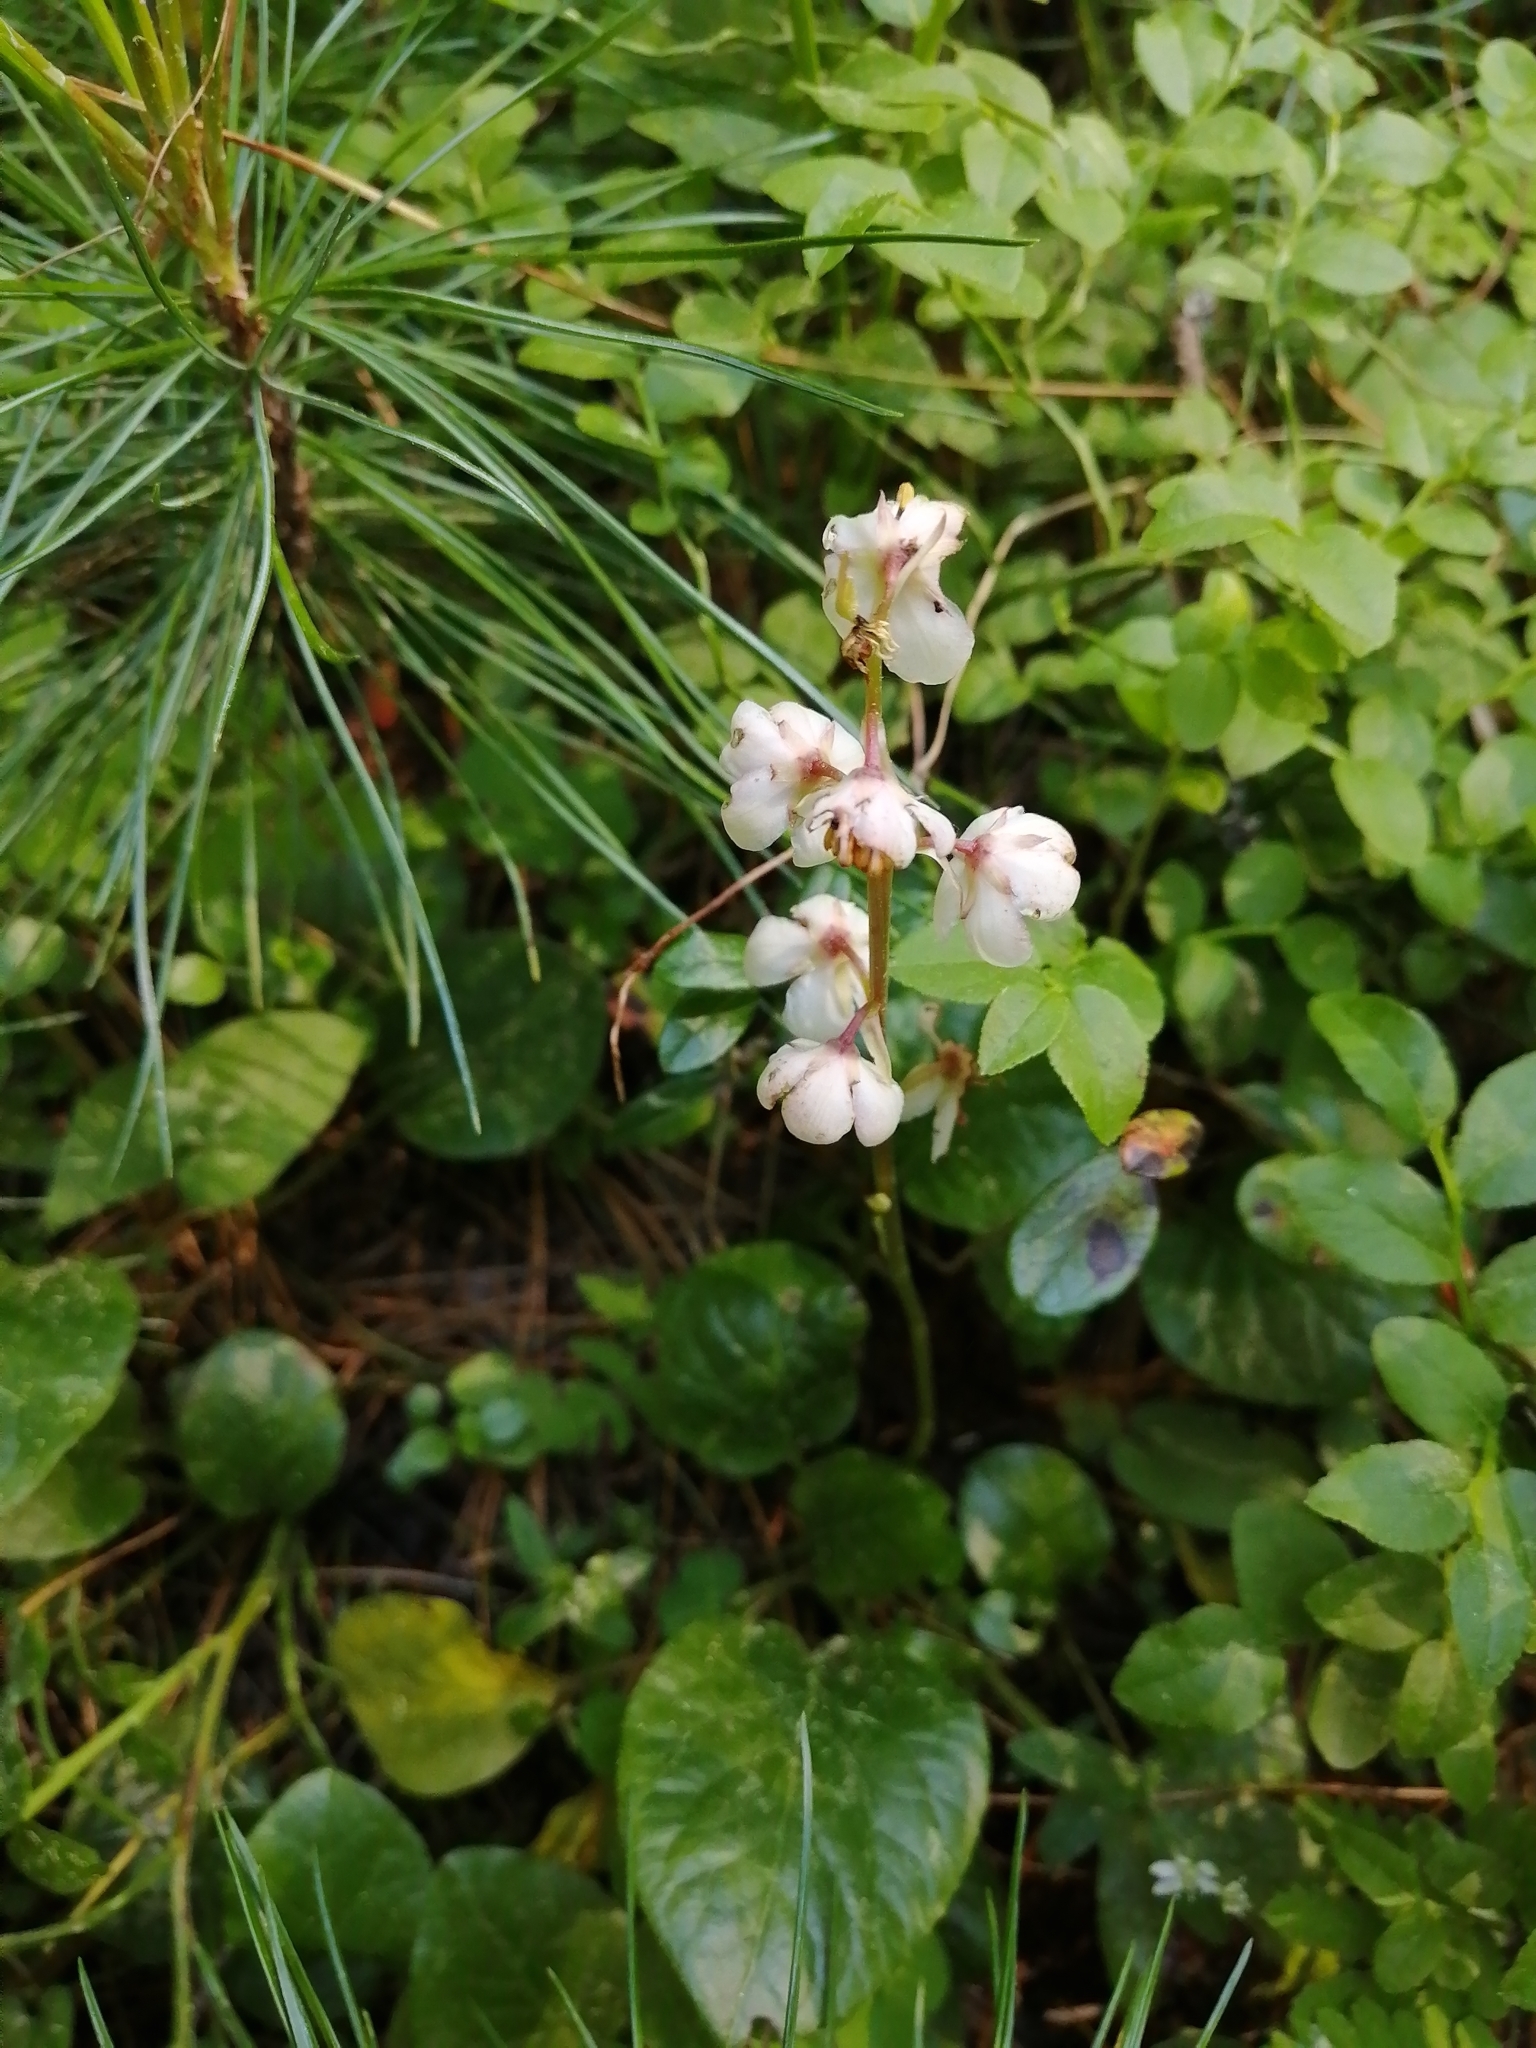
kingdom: Plantae
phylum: Tracheophyta
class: Magnoliopsida
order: Ericales
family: Ericaceae
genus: Pyrola
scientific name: Pyrola rotundifolia
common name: Round-leaved wintergreen
